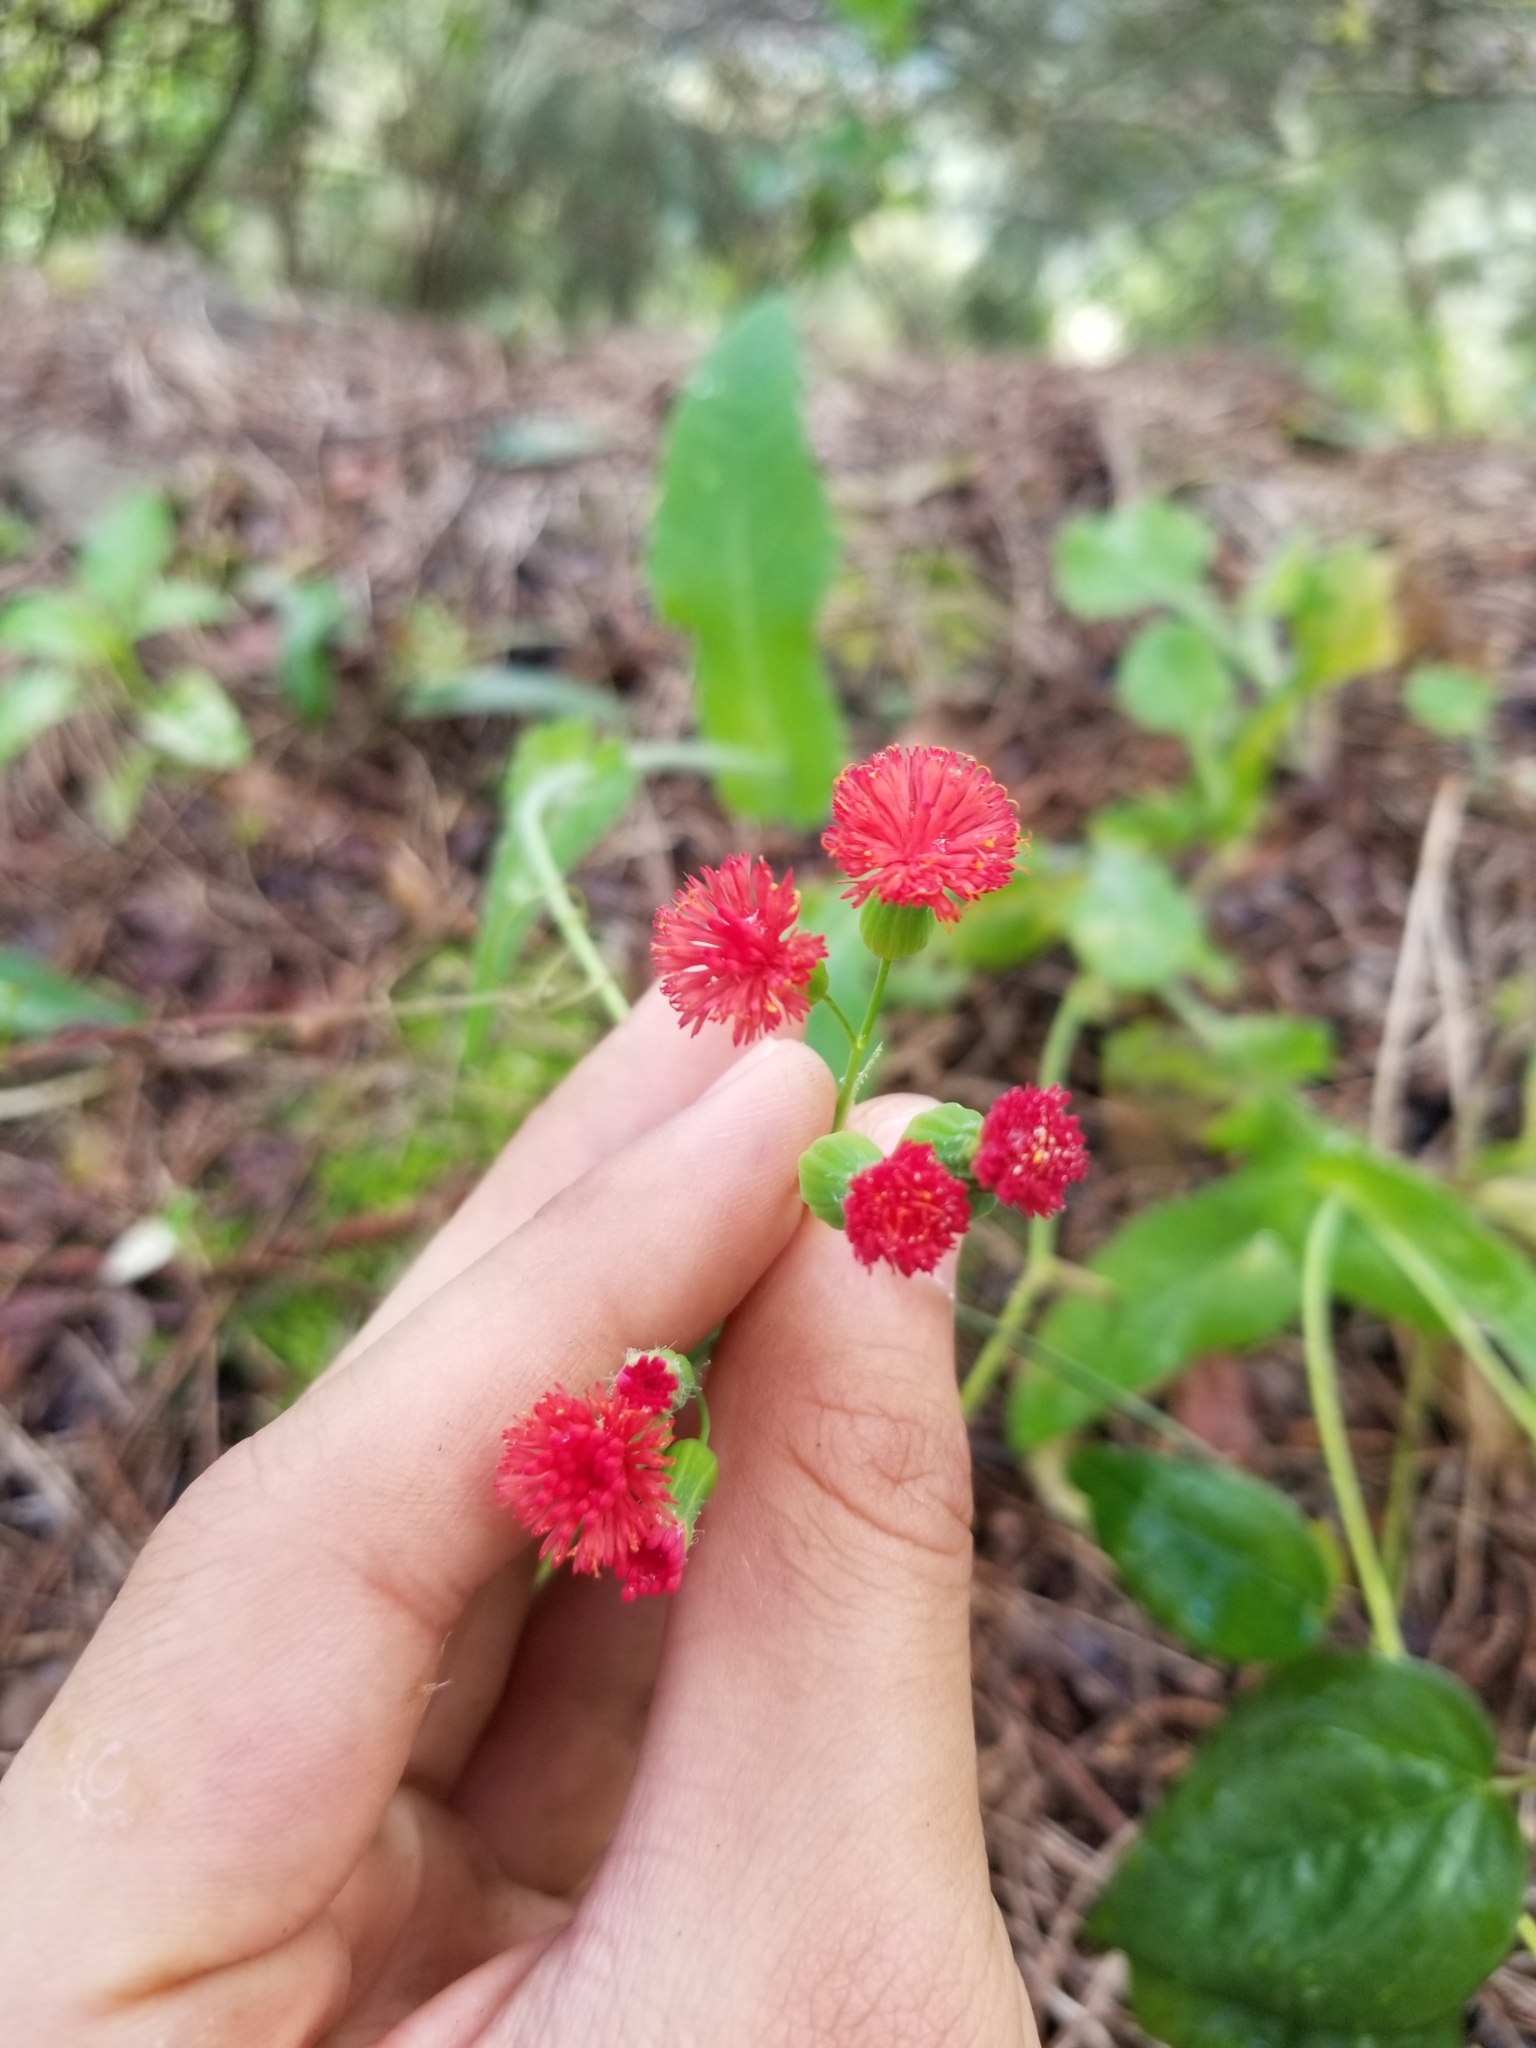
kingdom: Plantae
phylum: Tracheophyta
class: Magnoliopsida
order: Asterales
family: Asteraceae
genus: Emilia
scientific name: Emilia fosbergii
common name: Florida tasselflower
